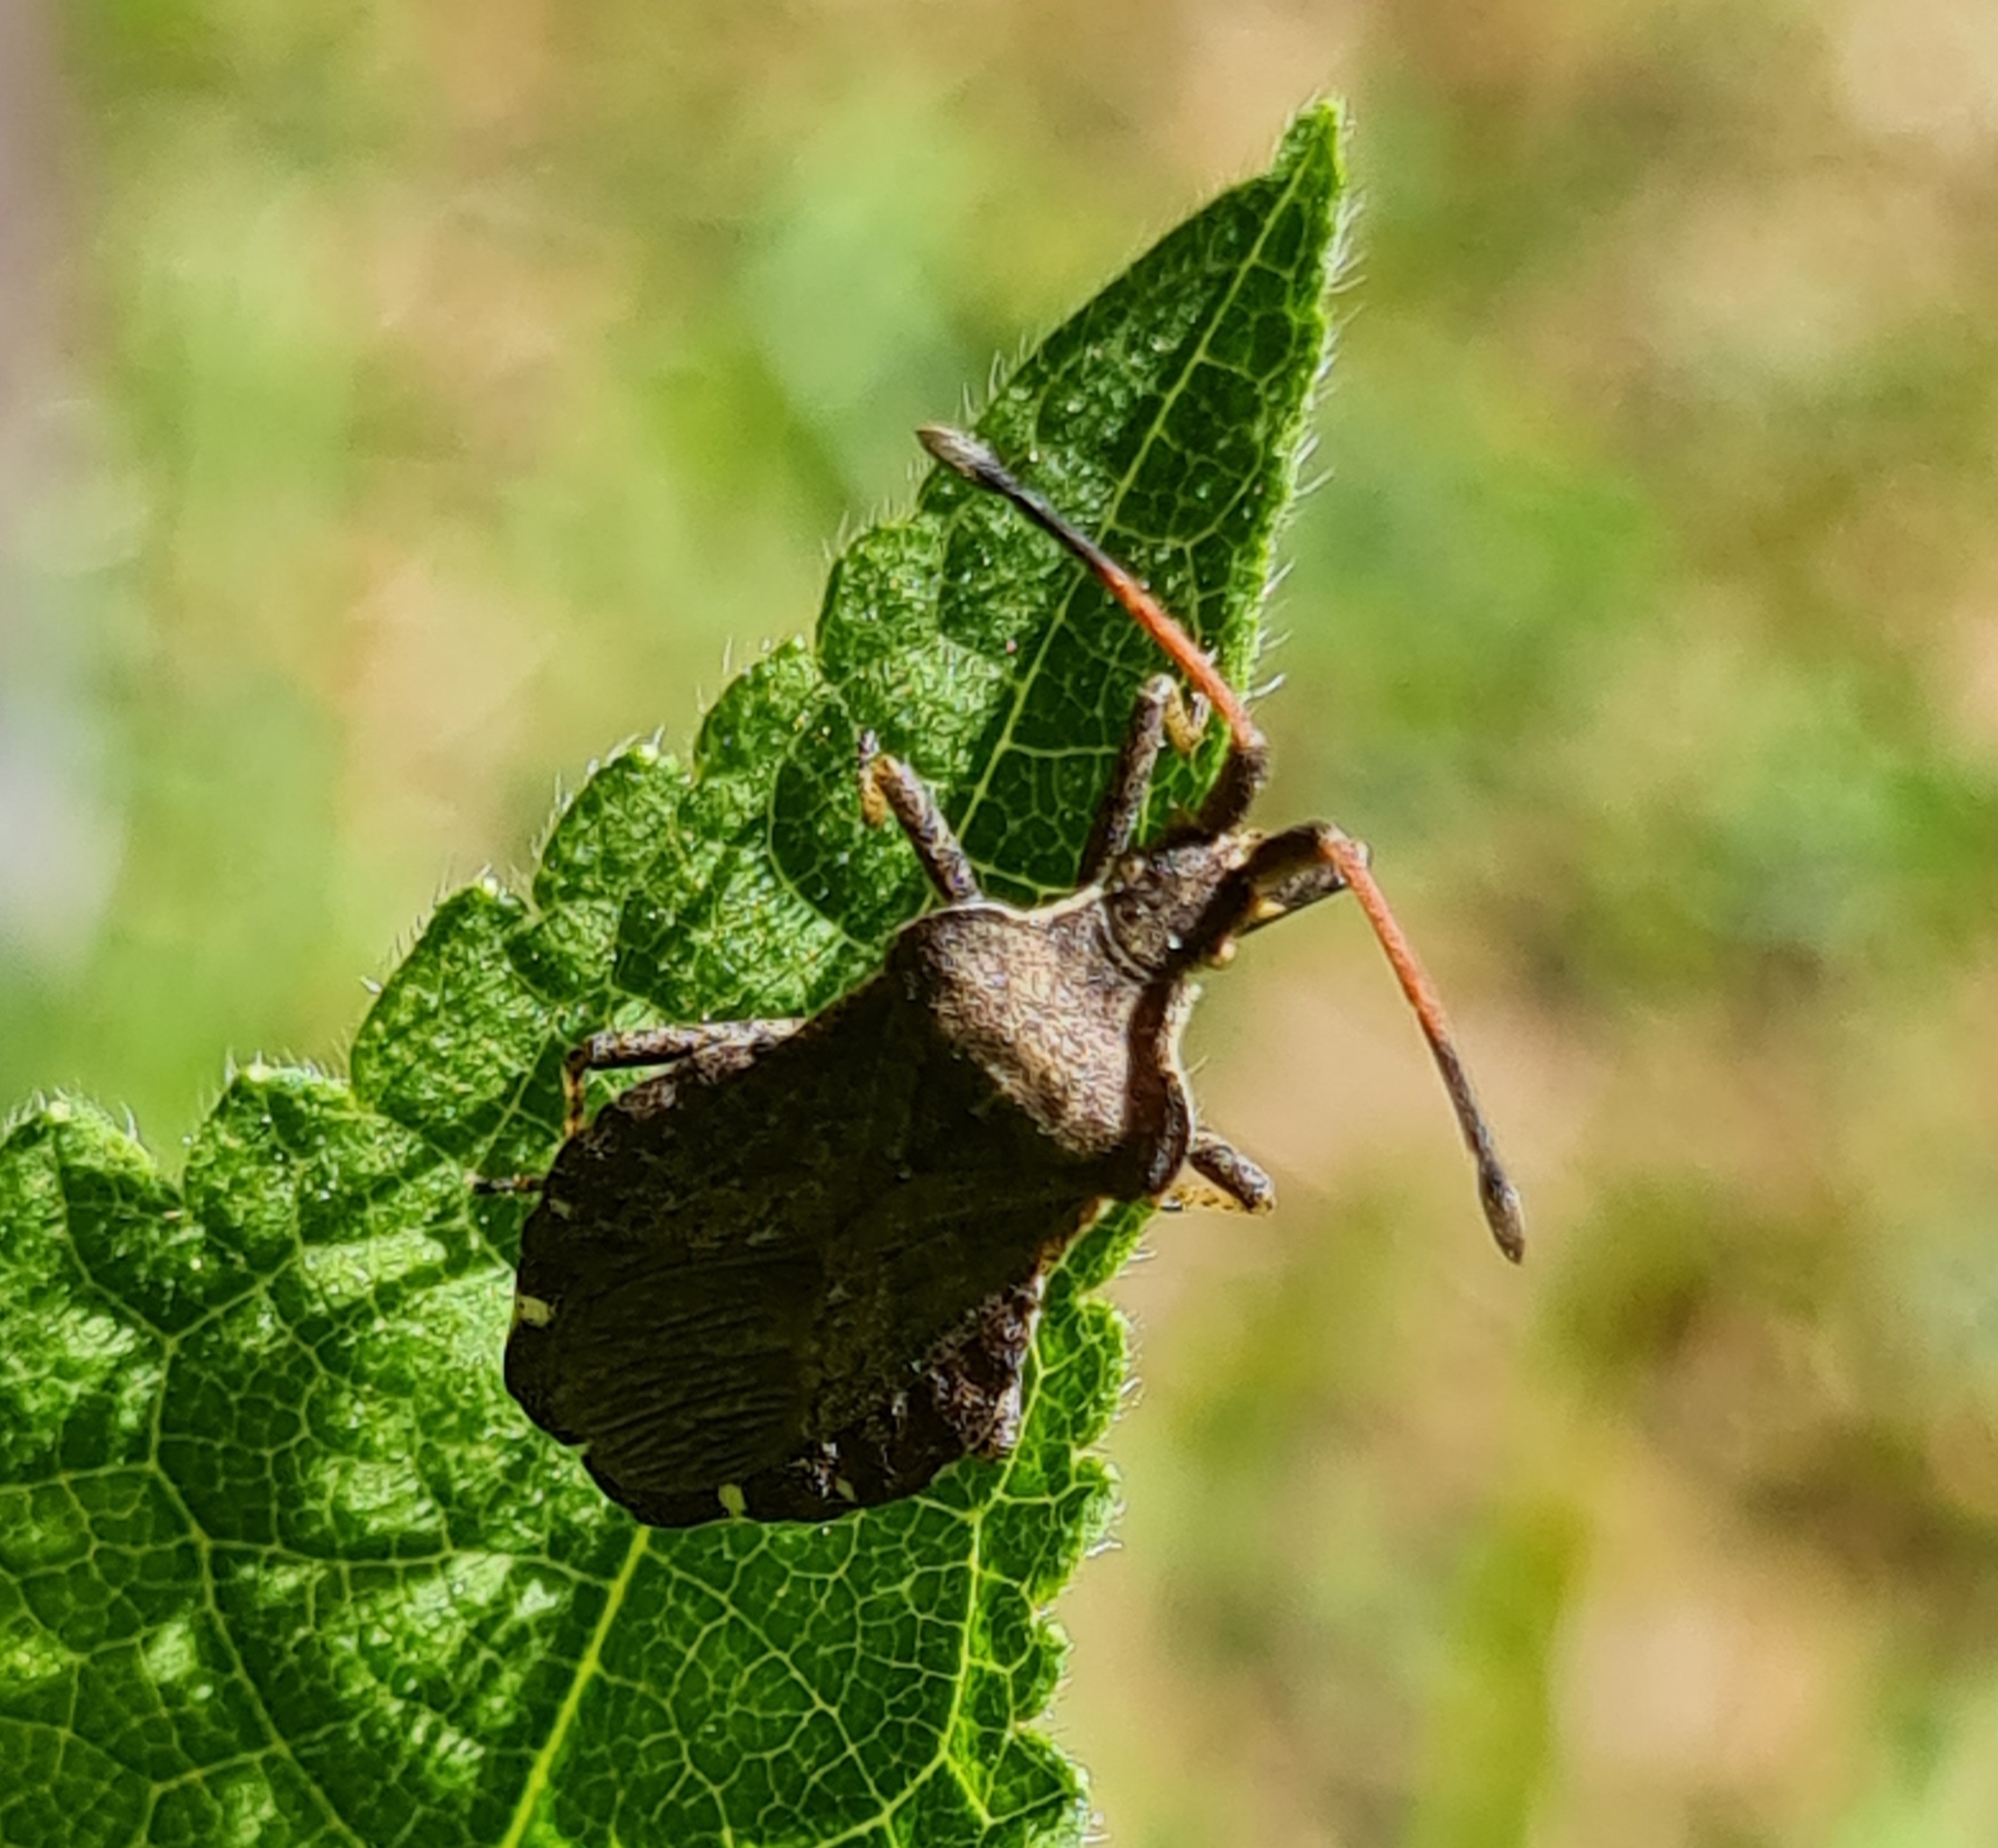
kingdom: Animalia
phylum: Arthropoda
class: Insecta
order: Hemiptera
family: Coreidae
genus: Enoplops
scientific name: Enoplops scapha
